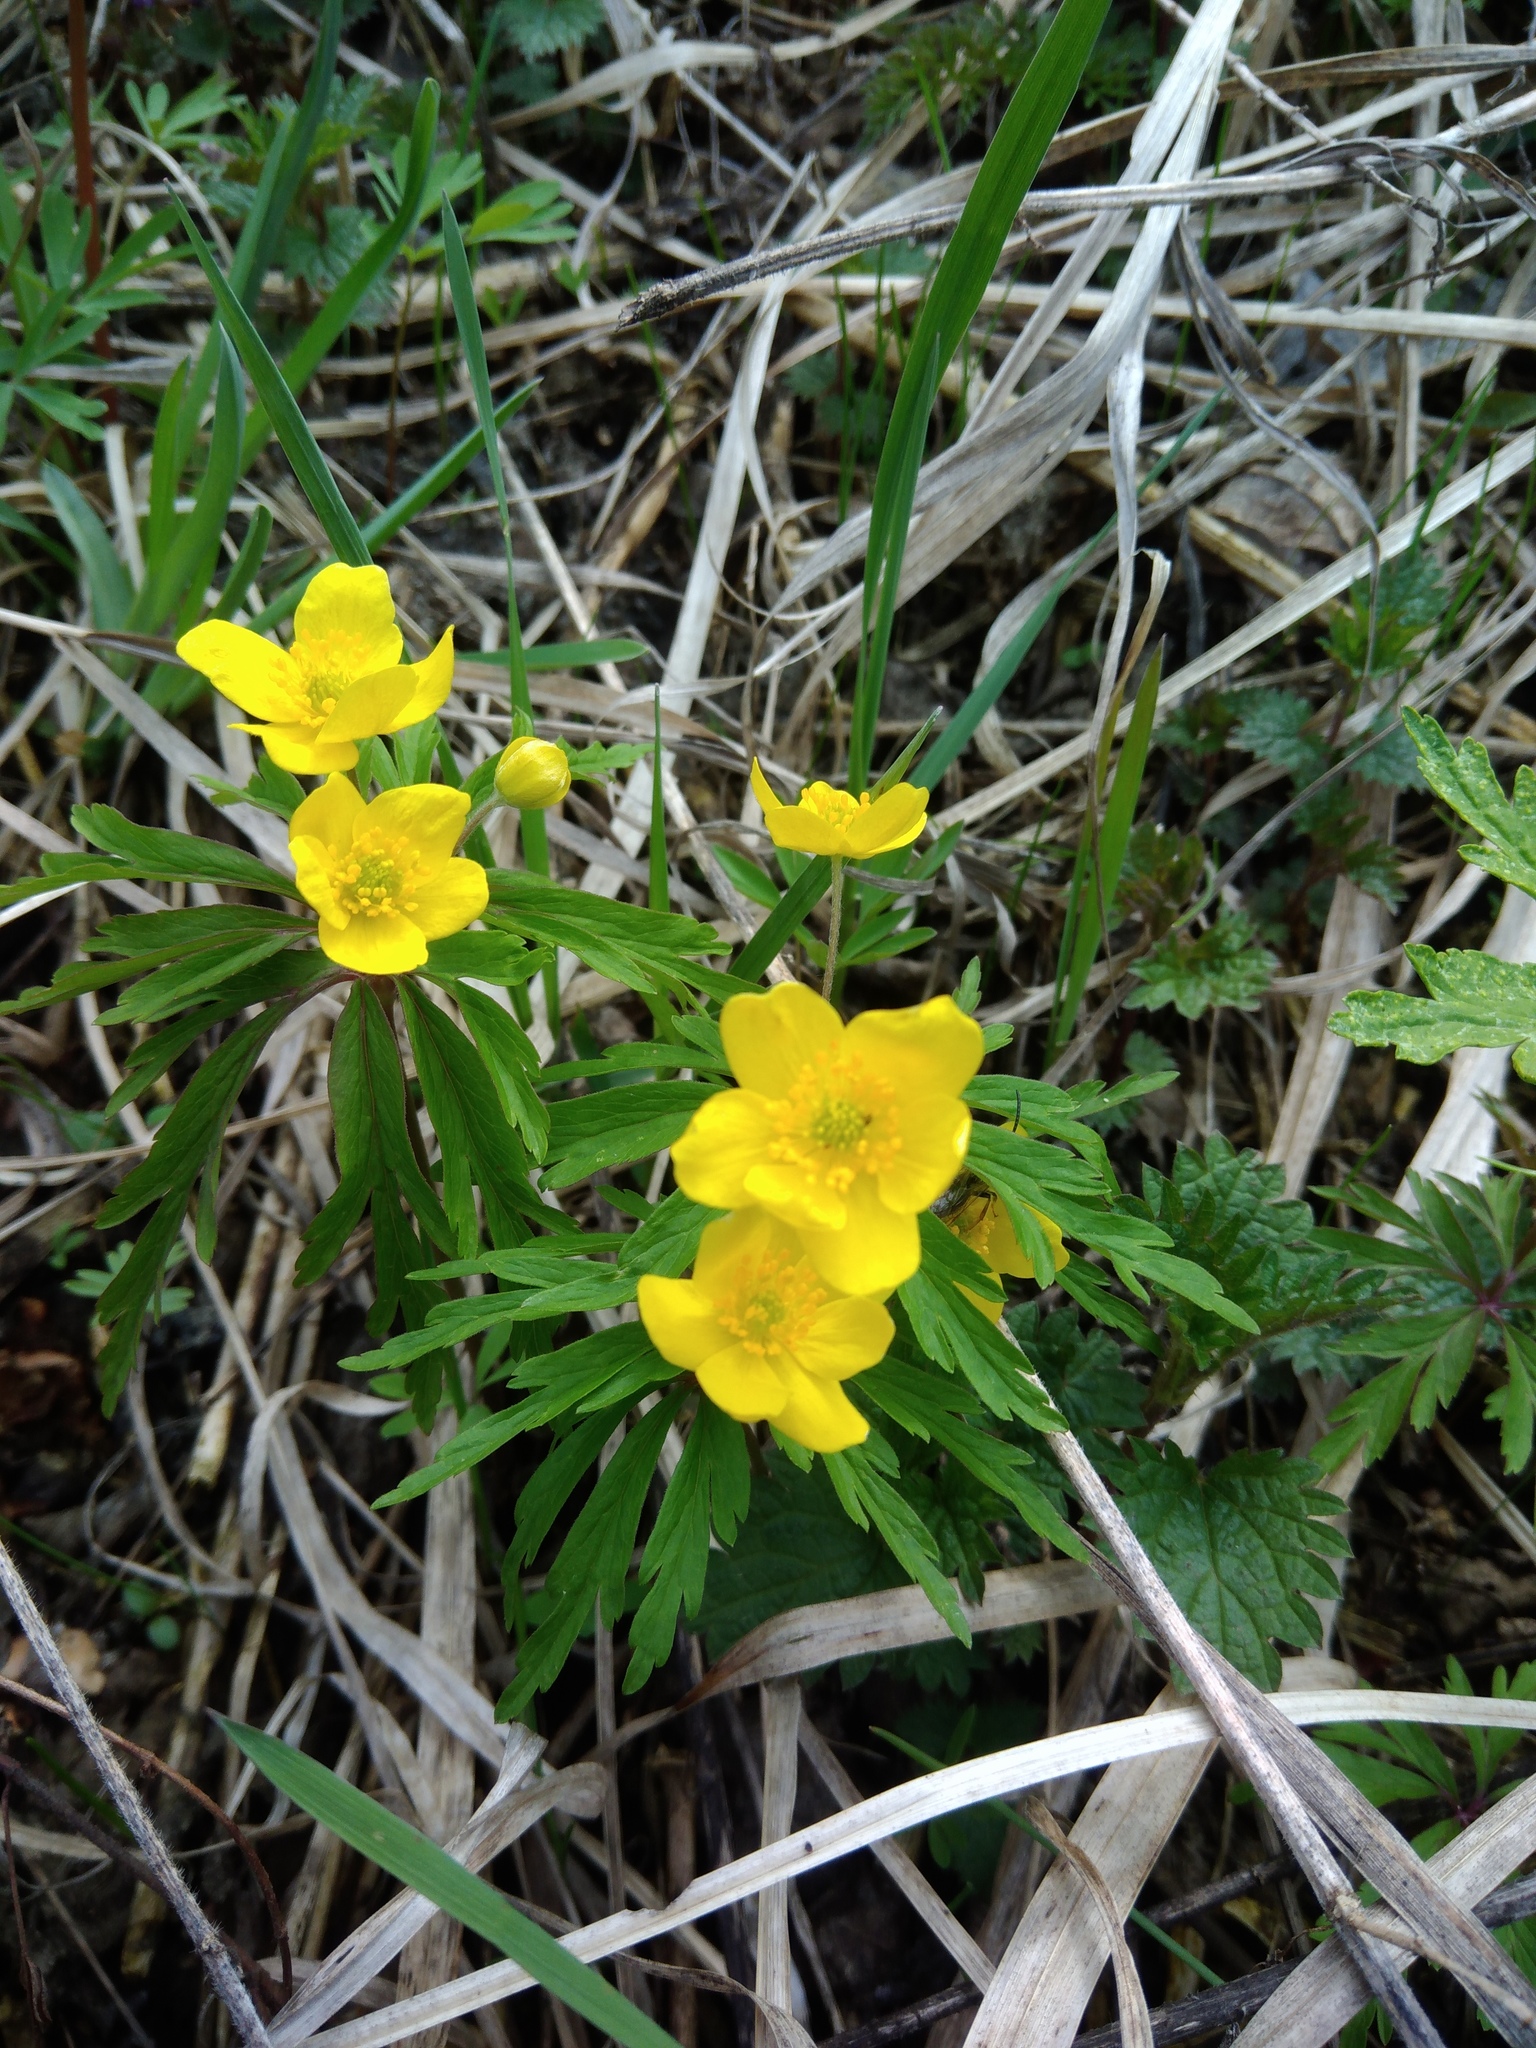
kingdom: Plantae
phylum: Tracheophyta
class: Magnoliopsida
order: Ranunculales
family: Ranunculaceae
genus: Anemone
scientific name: Anemone ranunculoides
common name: Yellow anemone
